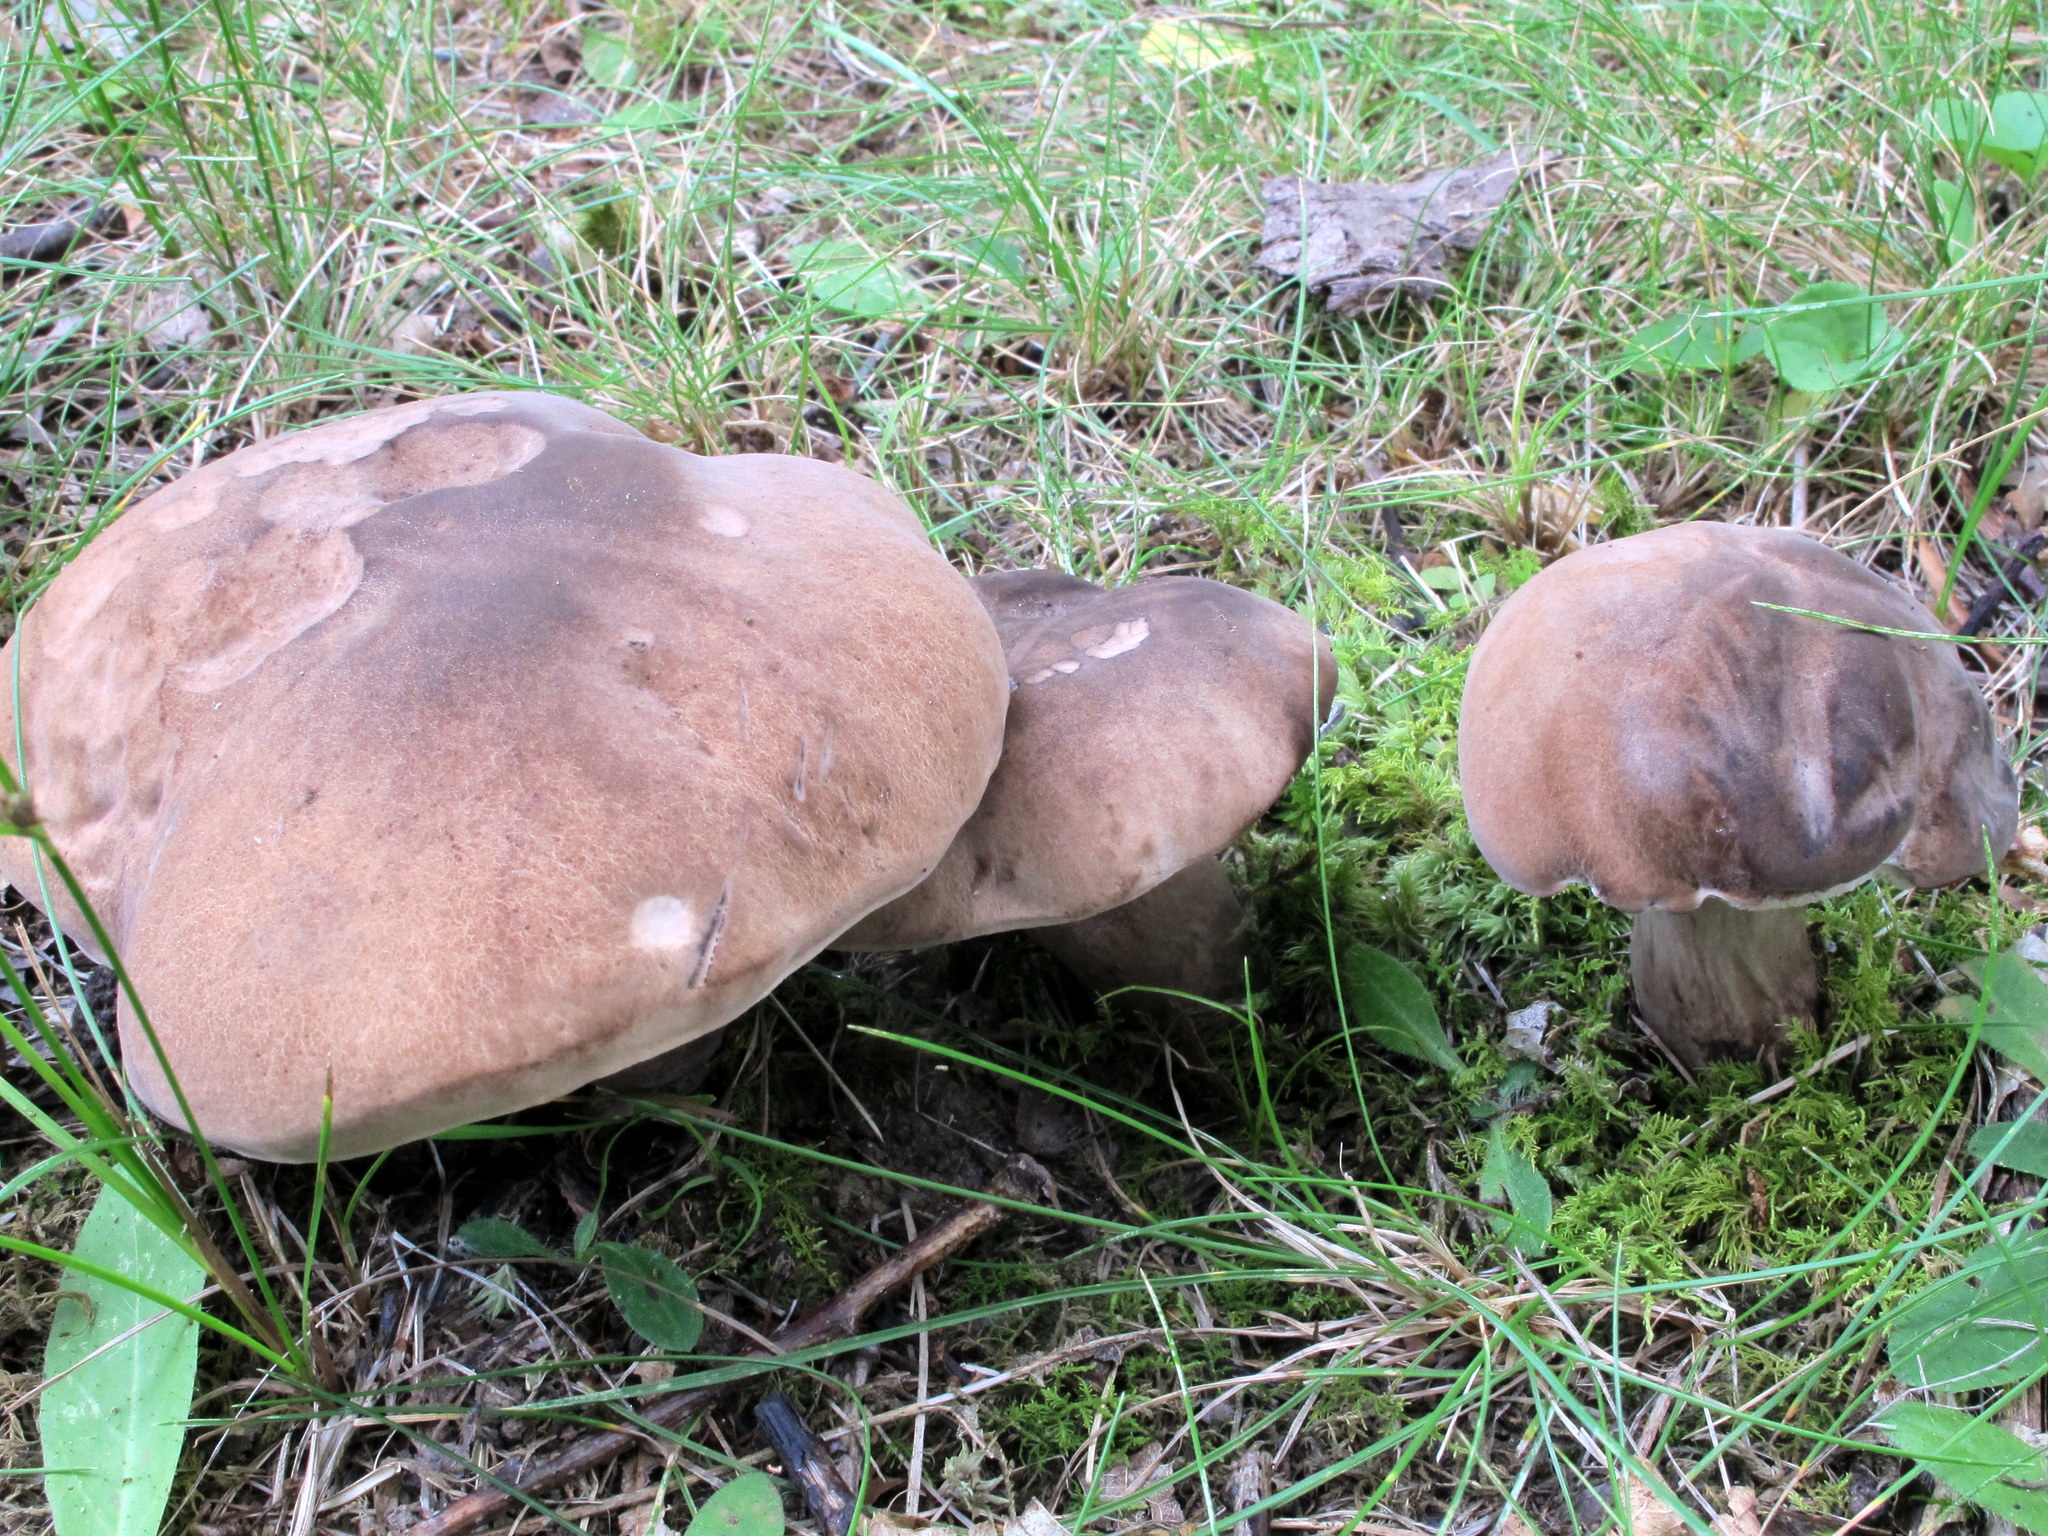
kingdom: Fungi
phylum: Basidiomycota
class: Agaricomycetes
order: Boletales
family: Boletaceae
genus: Tylopilus
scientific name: Tylopilus alboater
